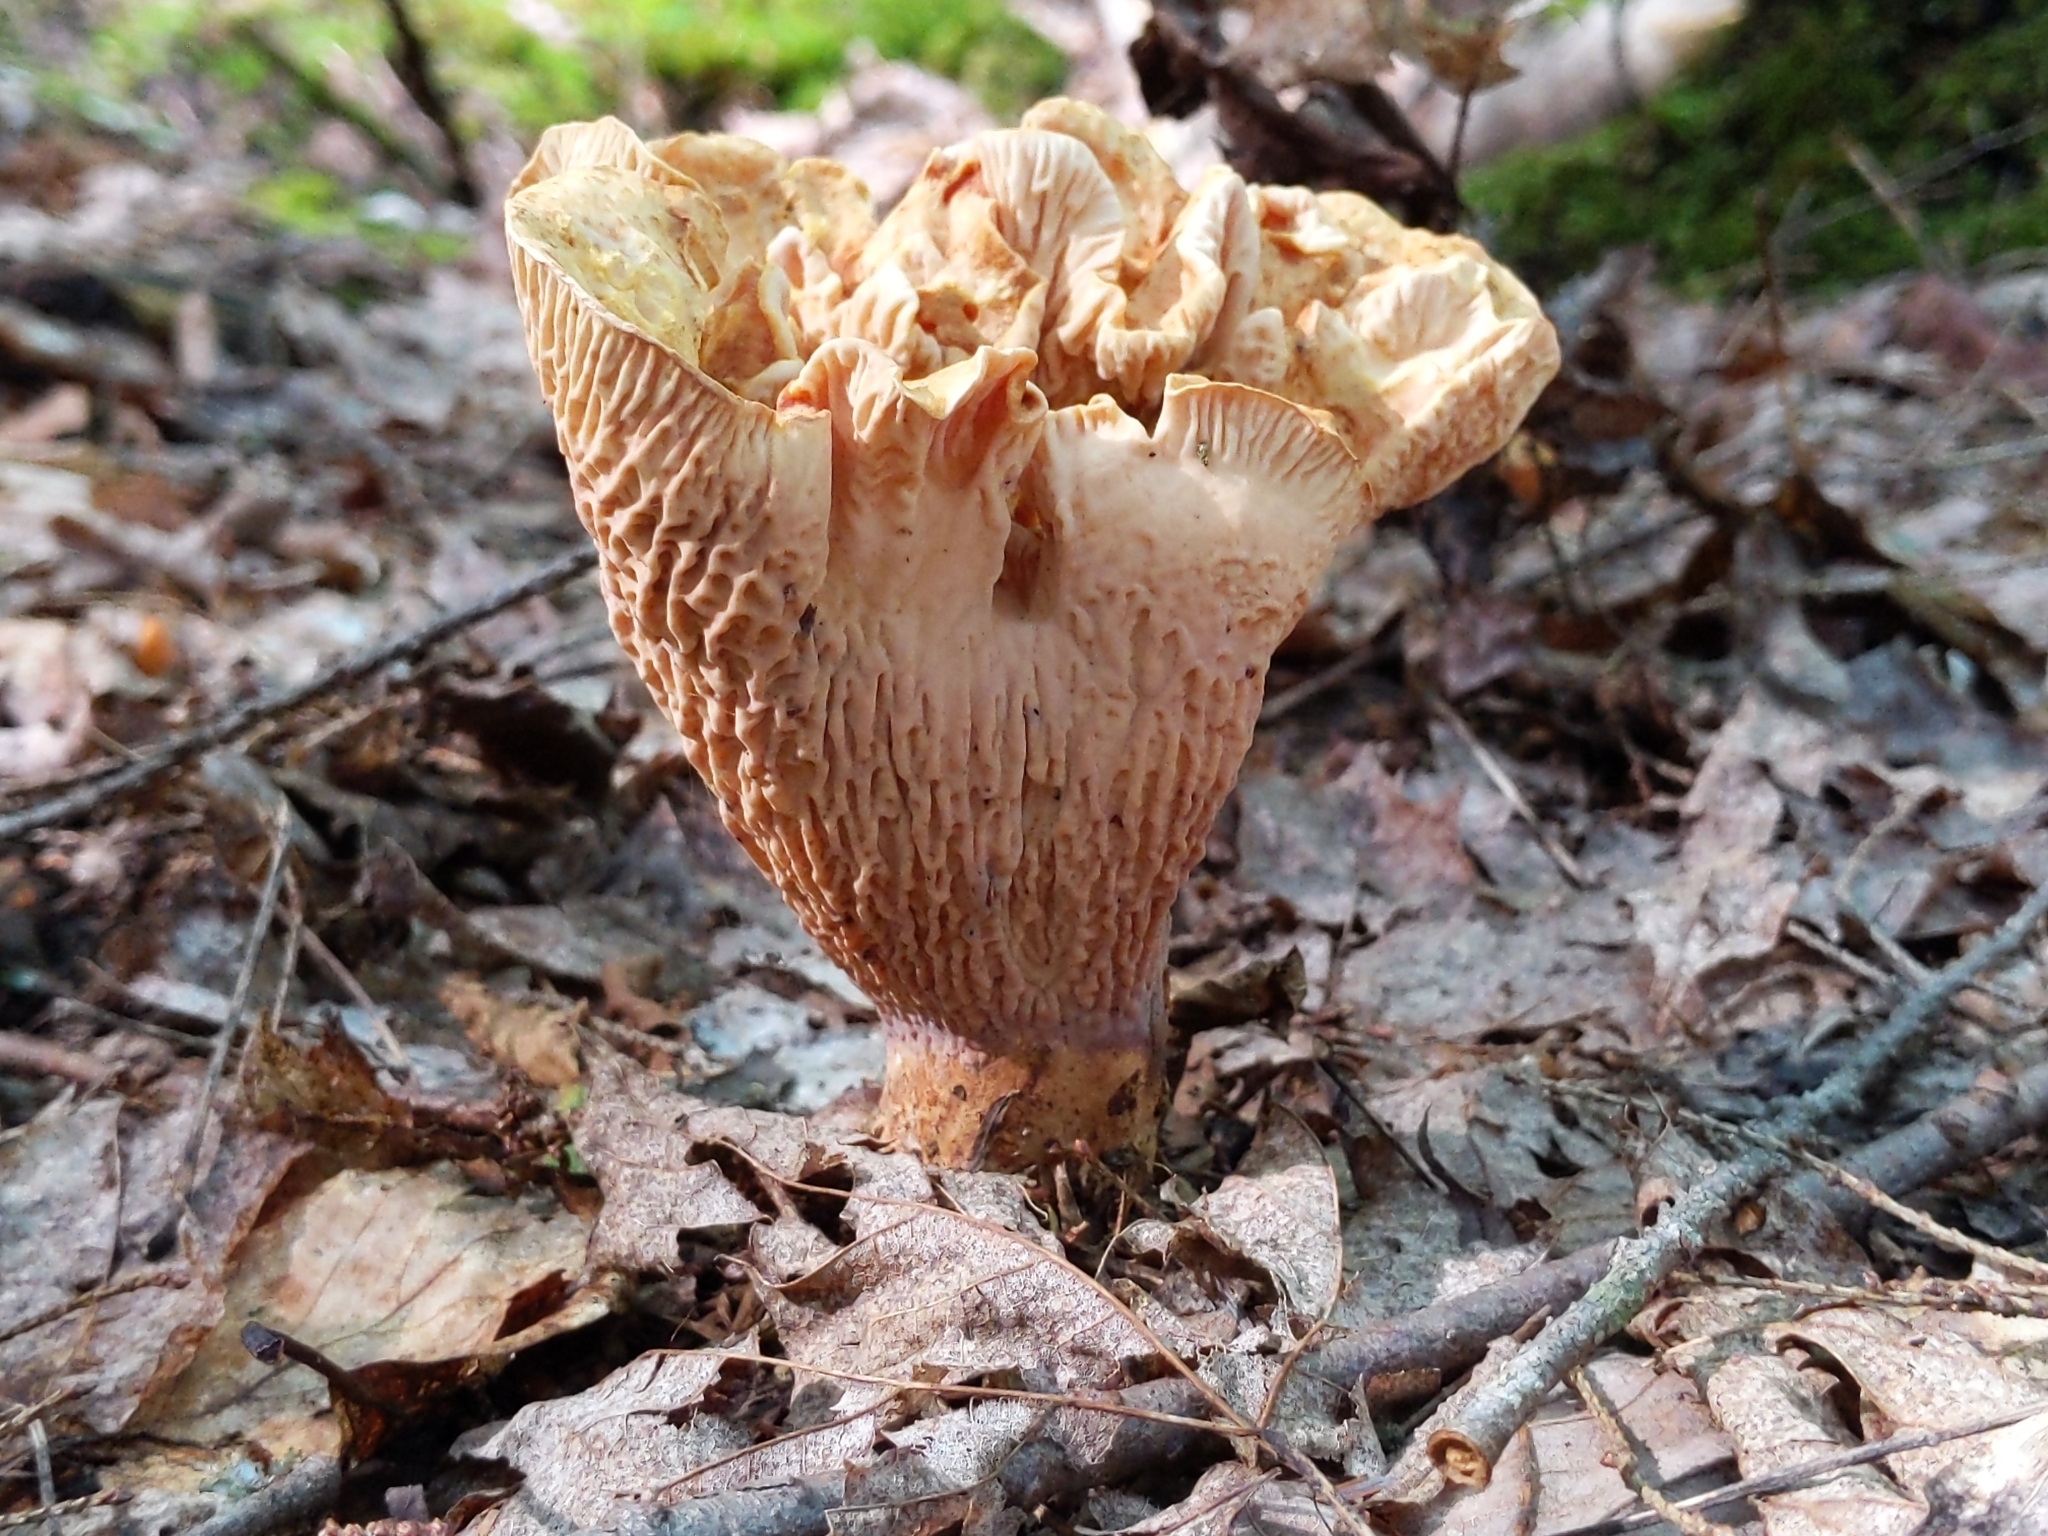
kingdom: Fungi
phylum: Basidiomycota
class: Agaricomycetes
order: Gomphales
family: Gomphaceae
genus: Turbinellus
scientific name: Turbinellus floccosus
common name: Scaly chanterelle
